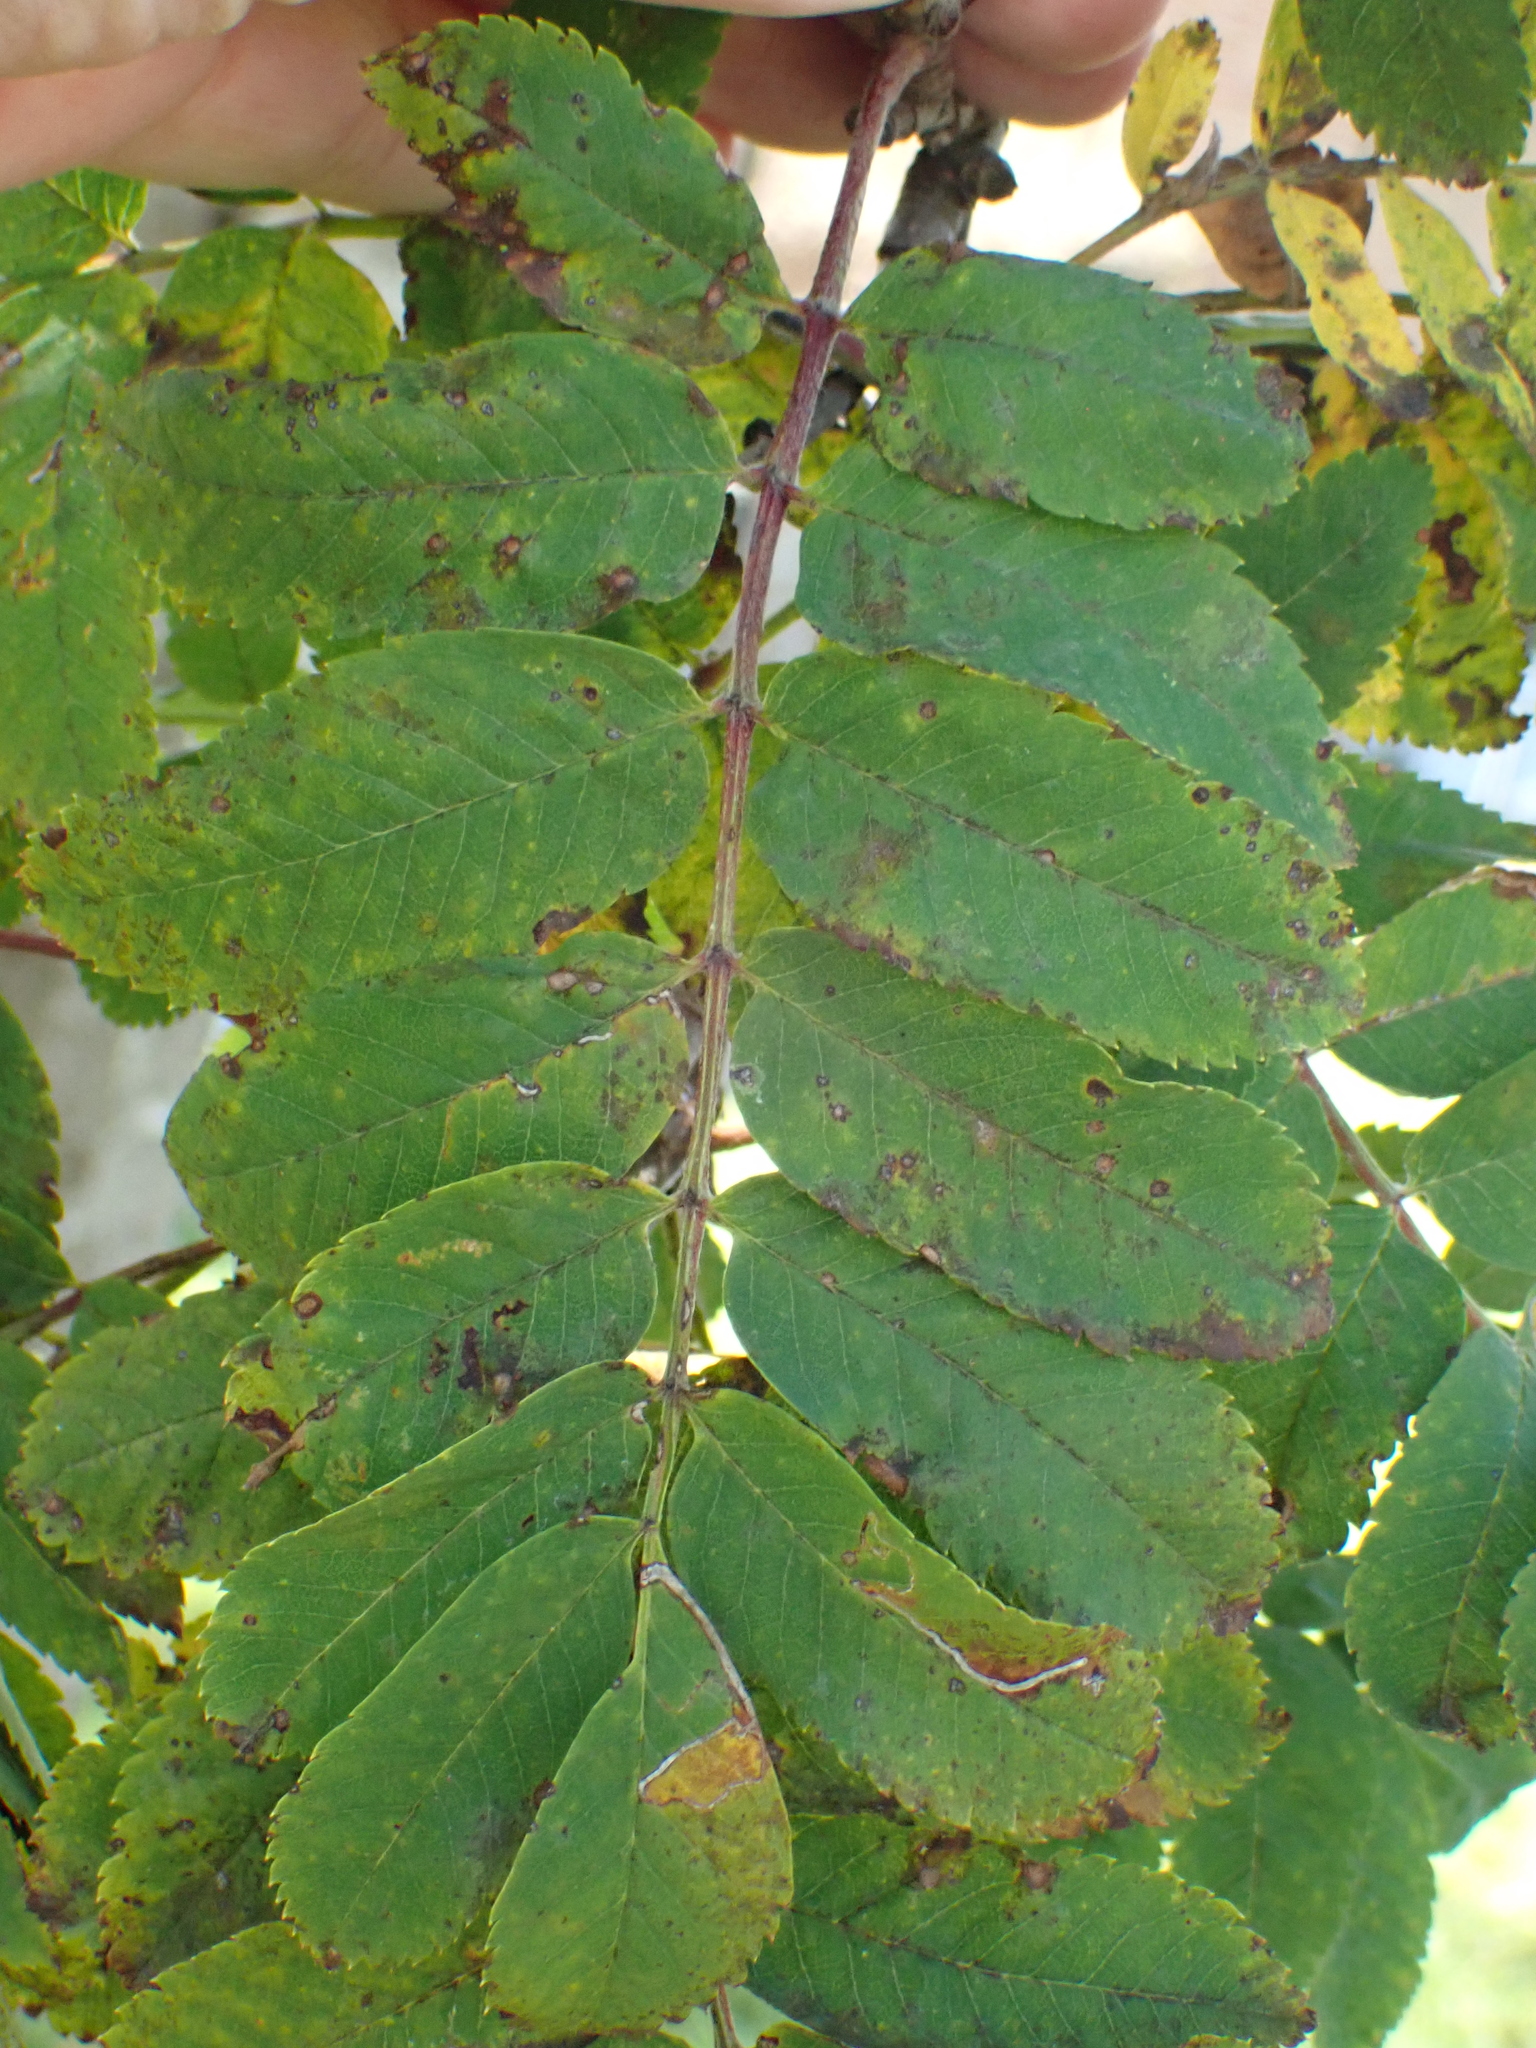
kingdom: Plantae
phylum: Tracheophyta
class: Magnoliopsida
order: Rosales
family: Rosaceae
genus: Sorbus
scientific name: Sorbus aucuparia
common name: Rowan
